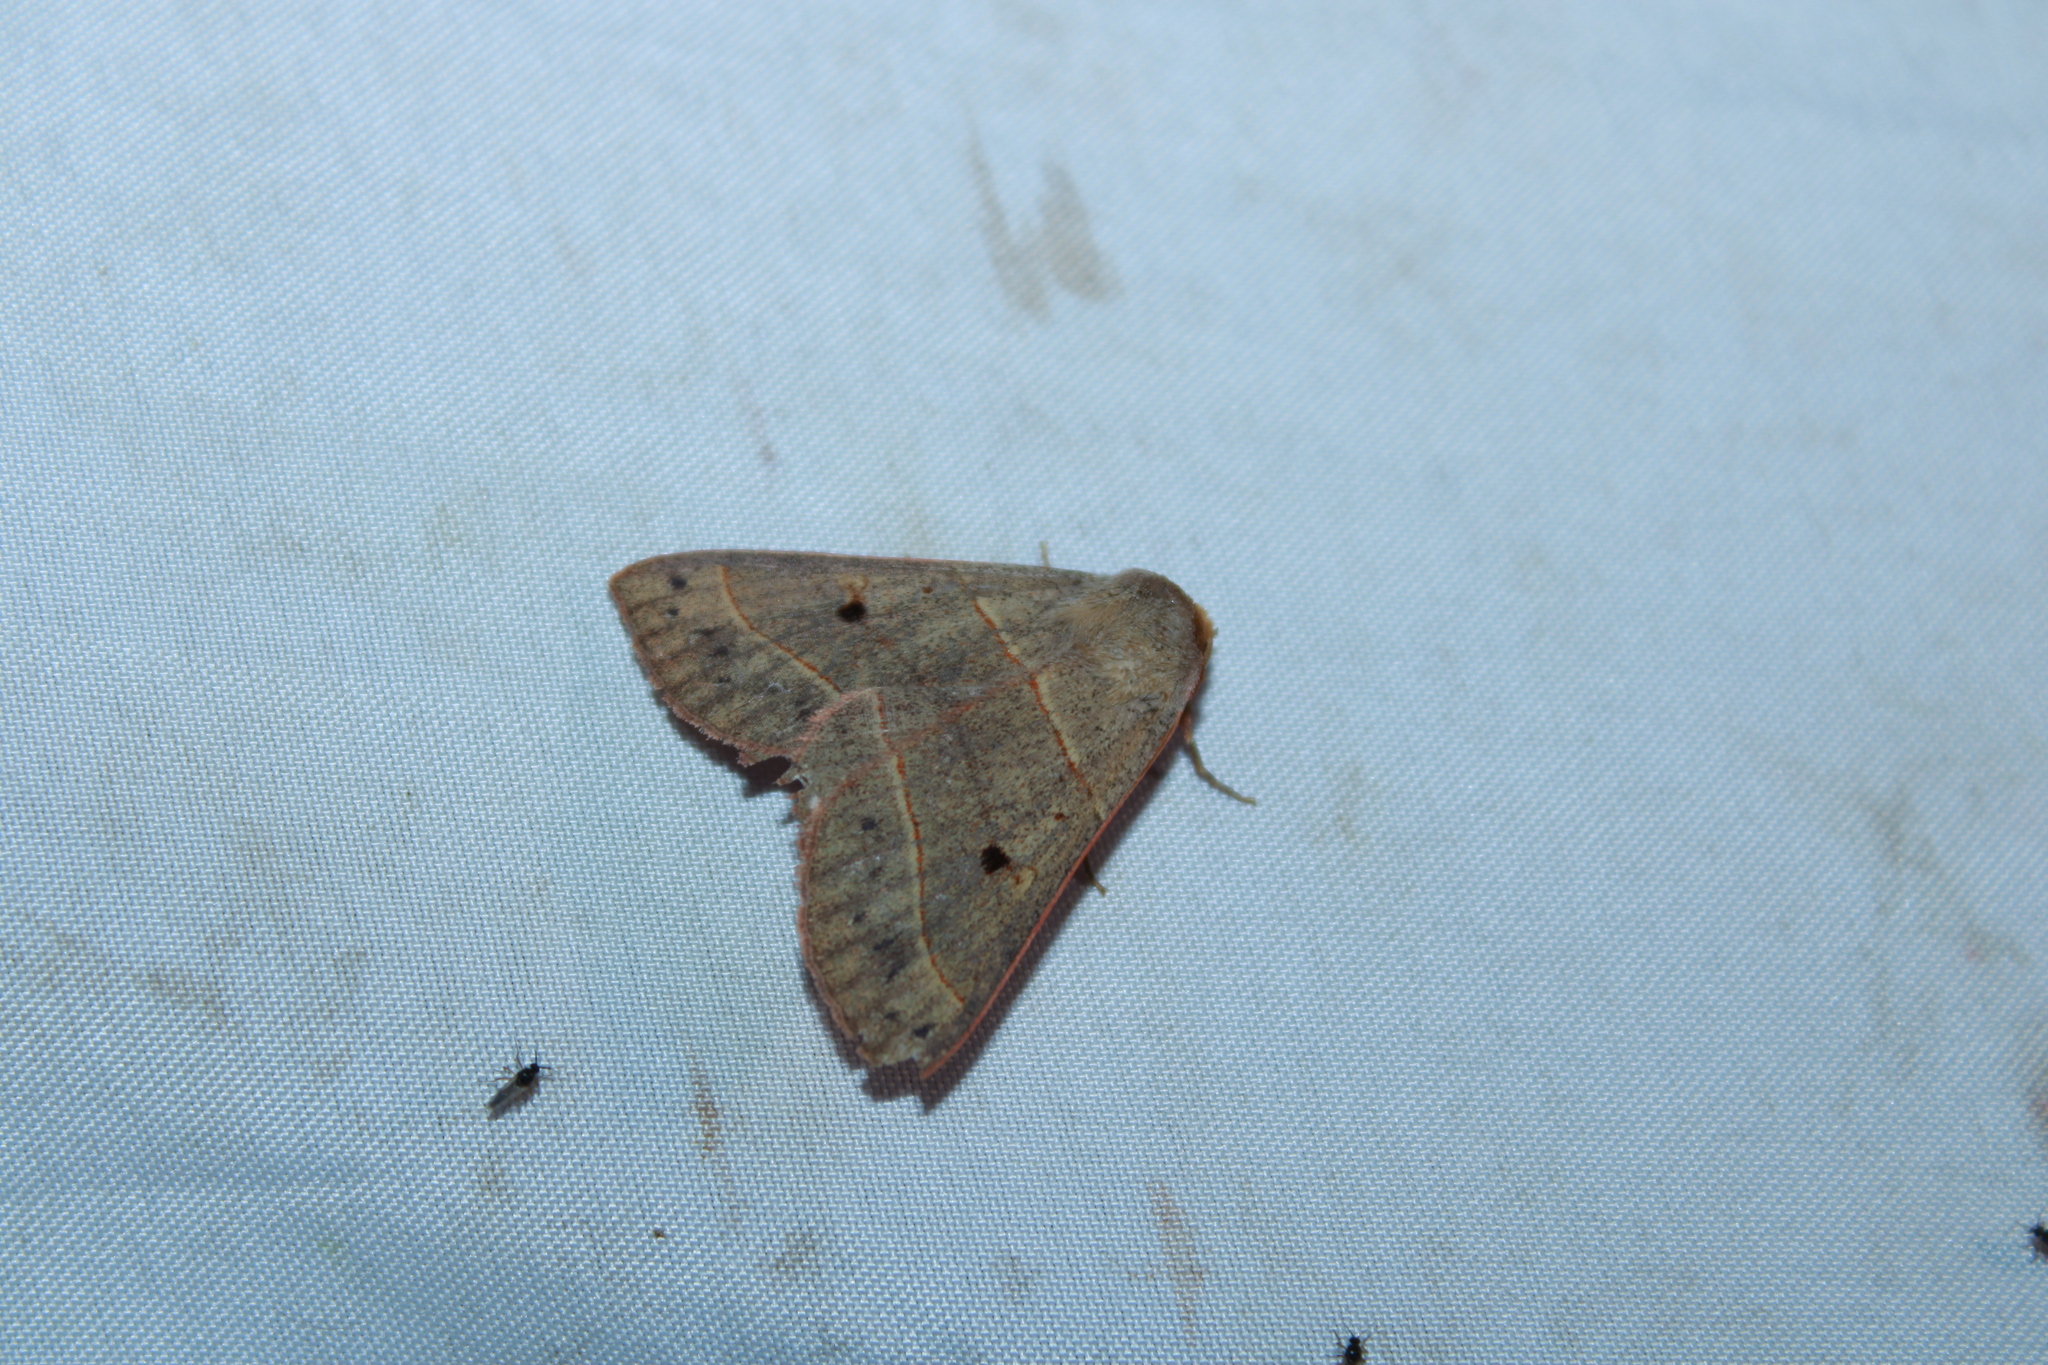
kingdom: Animalia
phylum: Arthropoda
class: Insecta
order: Lepidoptera
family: Erebidae
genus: Panopoda
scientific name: Panopoda rufimargo
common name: Red-lined panopoda moth
